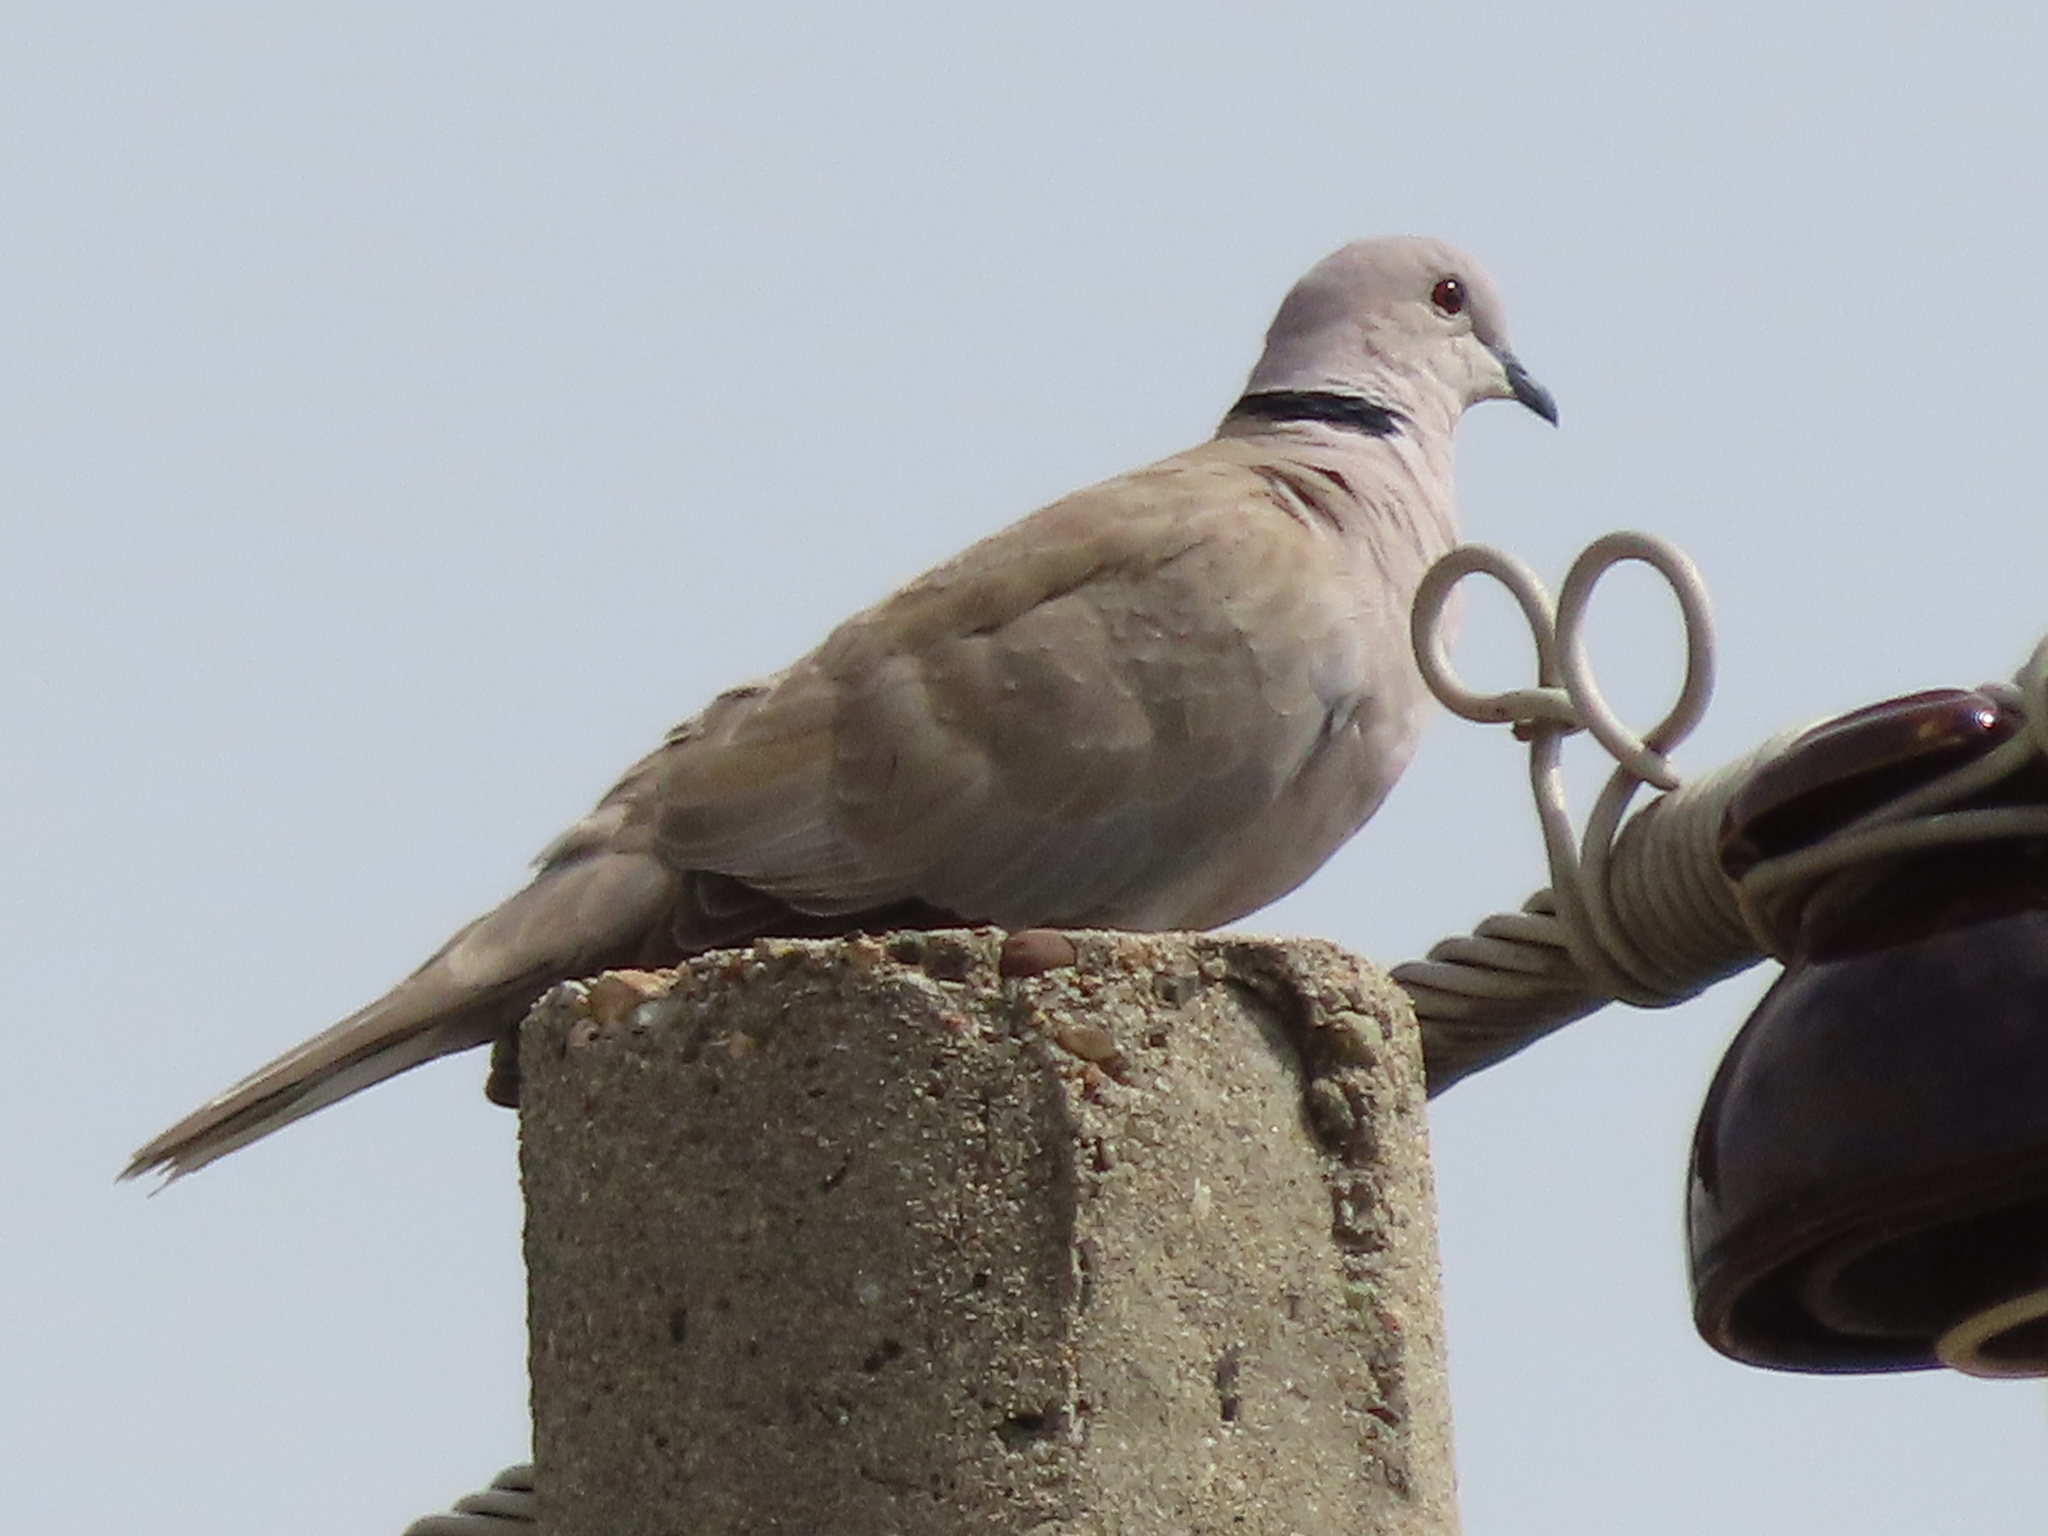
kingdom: Animalia
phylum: Chordata
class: Aves
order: Columbiformes
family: Columbidae
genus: Streptopelia
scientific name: Streptopelia decaocto
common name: Eurasian collared dove
